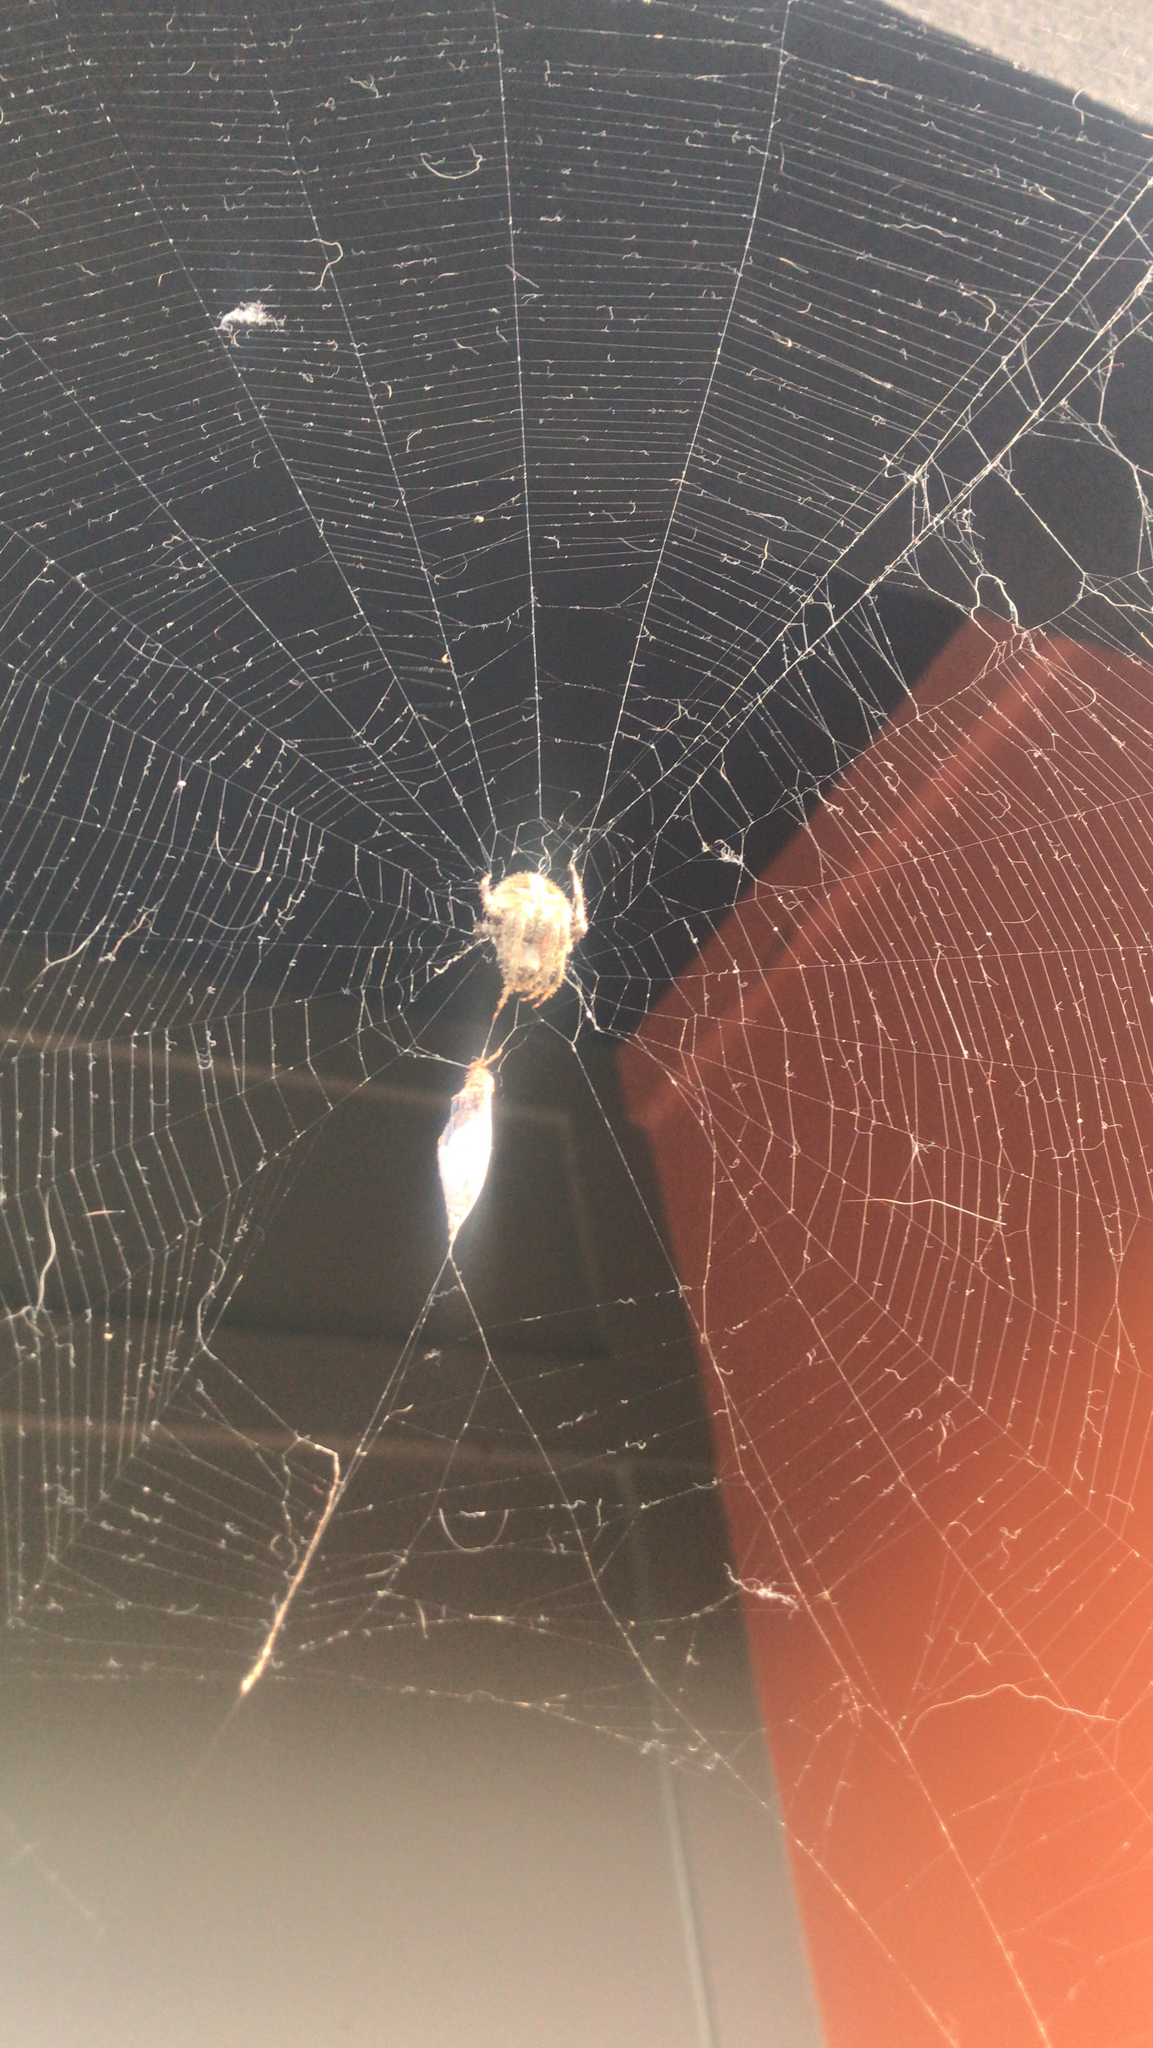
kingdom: Animalia
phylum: Arthropoda
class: Arachnida
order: Araneae
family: Araneidae
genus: Neoscona
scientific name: Neoscona crucifera
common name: Spotted orbweaver
